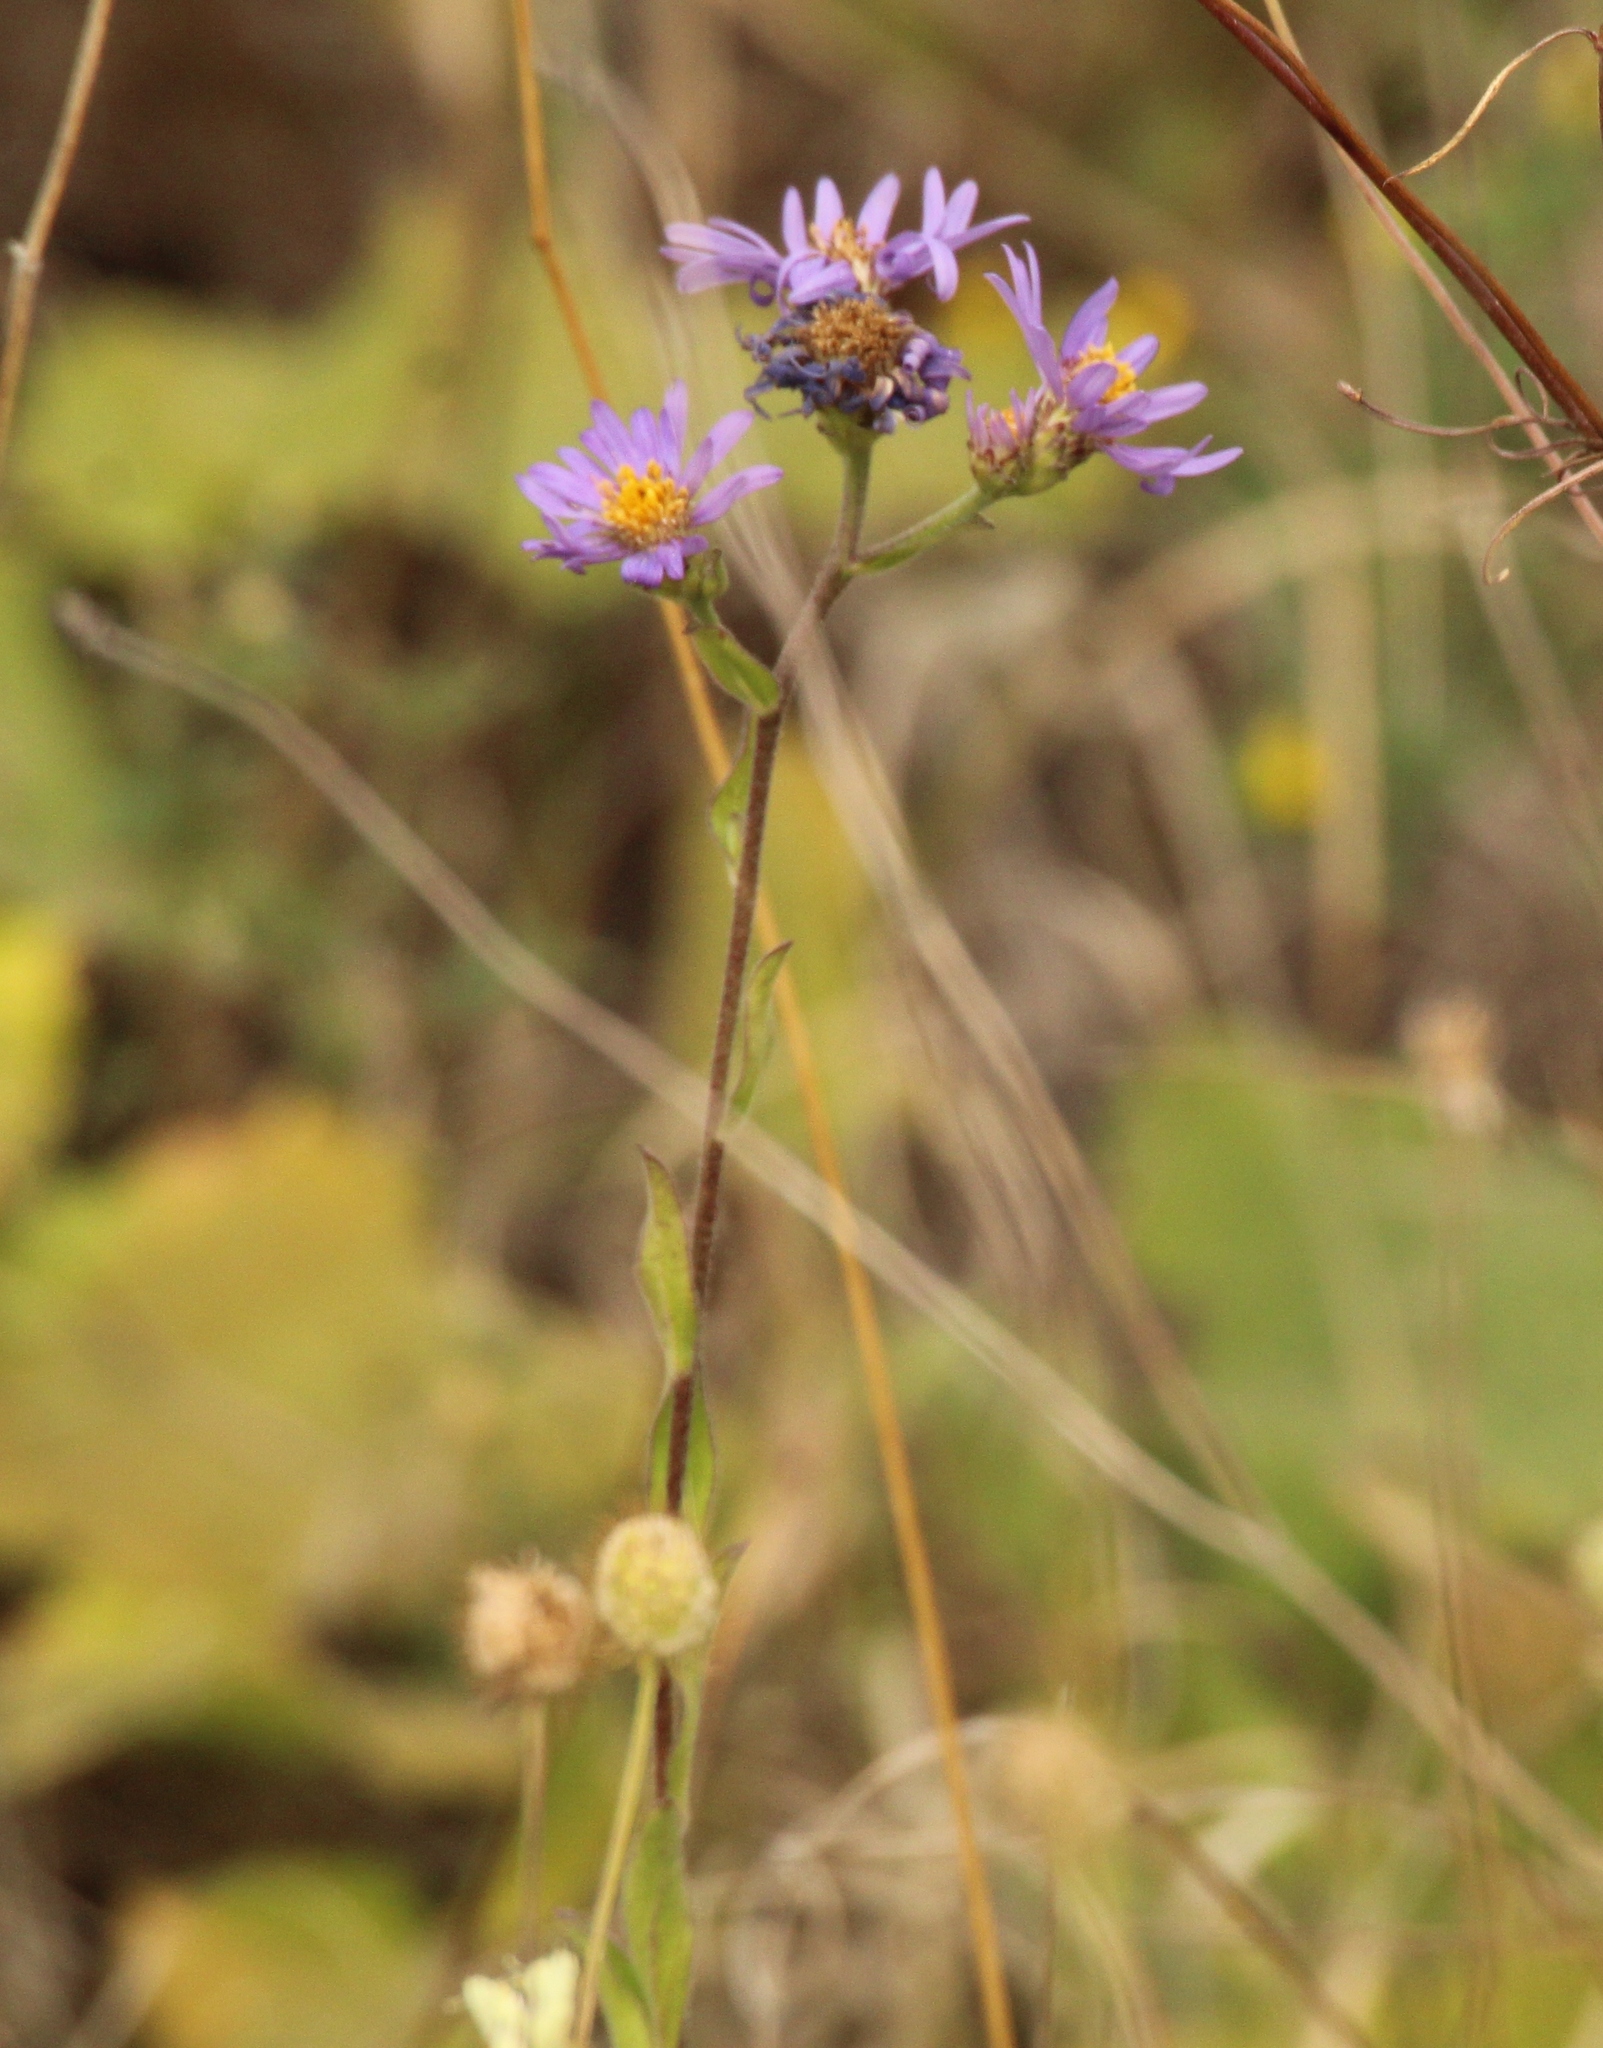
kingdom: Plantae
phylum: Tracheophyta
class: Magnoliopsida
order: Asterales
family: Asteraceae
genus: Aster
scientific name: Aster amellus
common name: European michaelmas daisy
